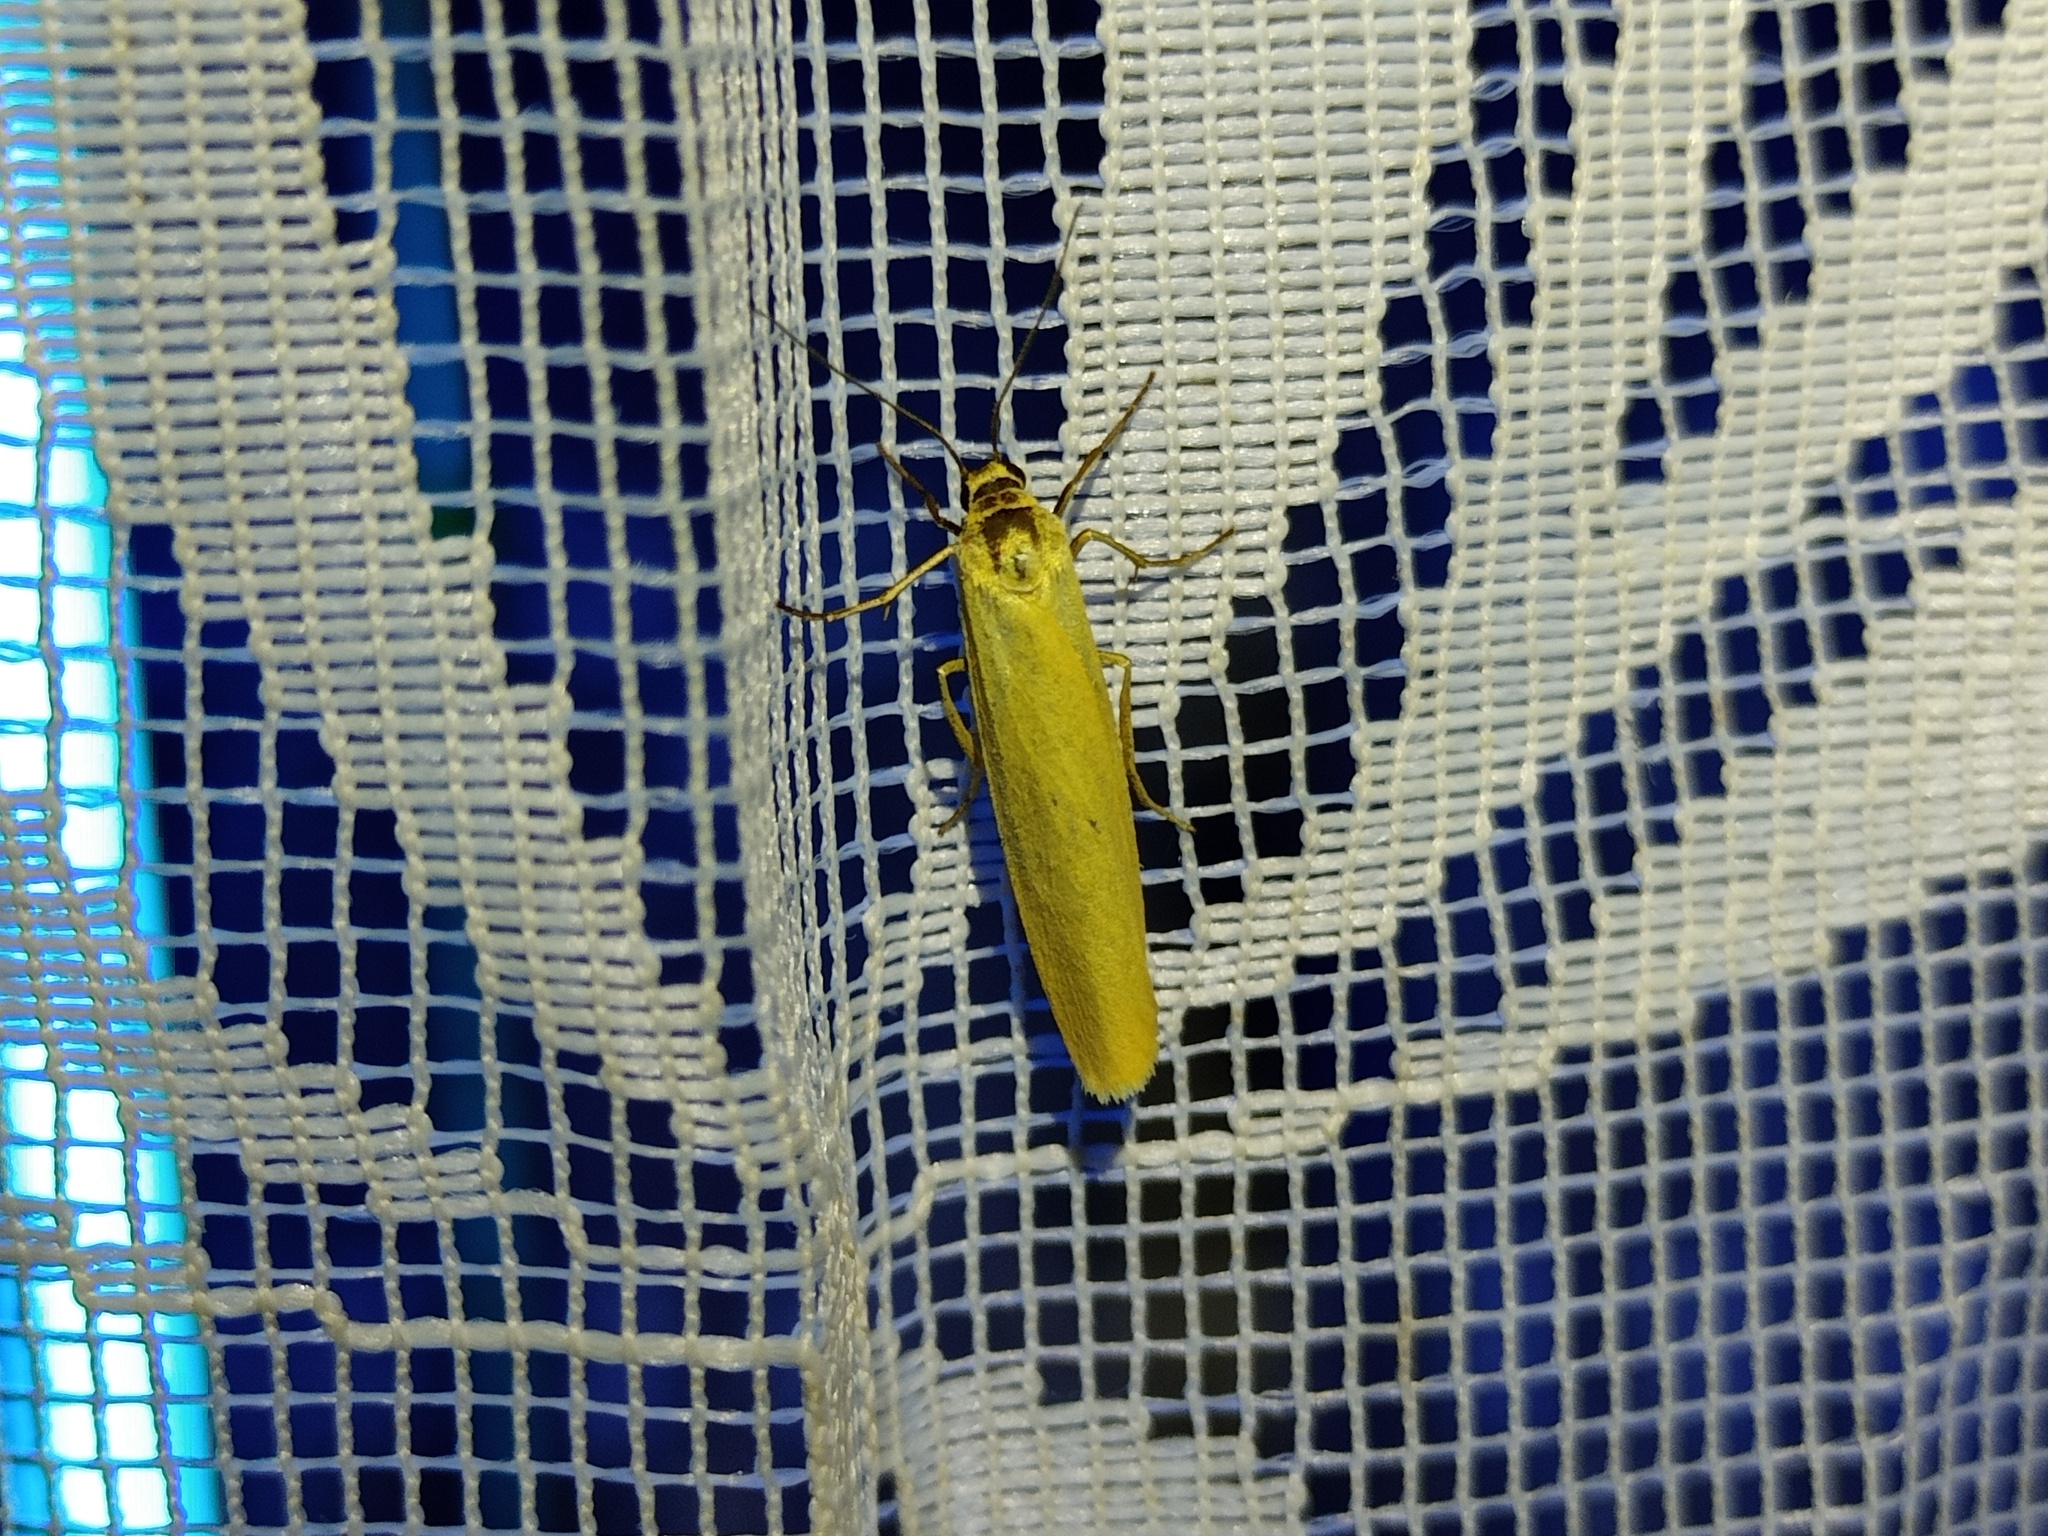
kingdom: Animalia
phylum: Arthropoda
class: Insecta
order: Lepidoptera
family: Erebidae
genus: Indalia
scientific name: Indalia lutarella
